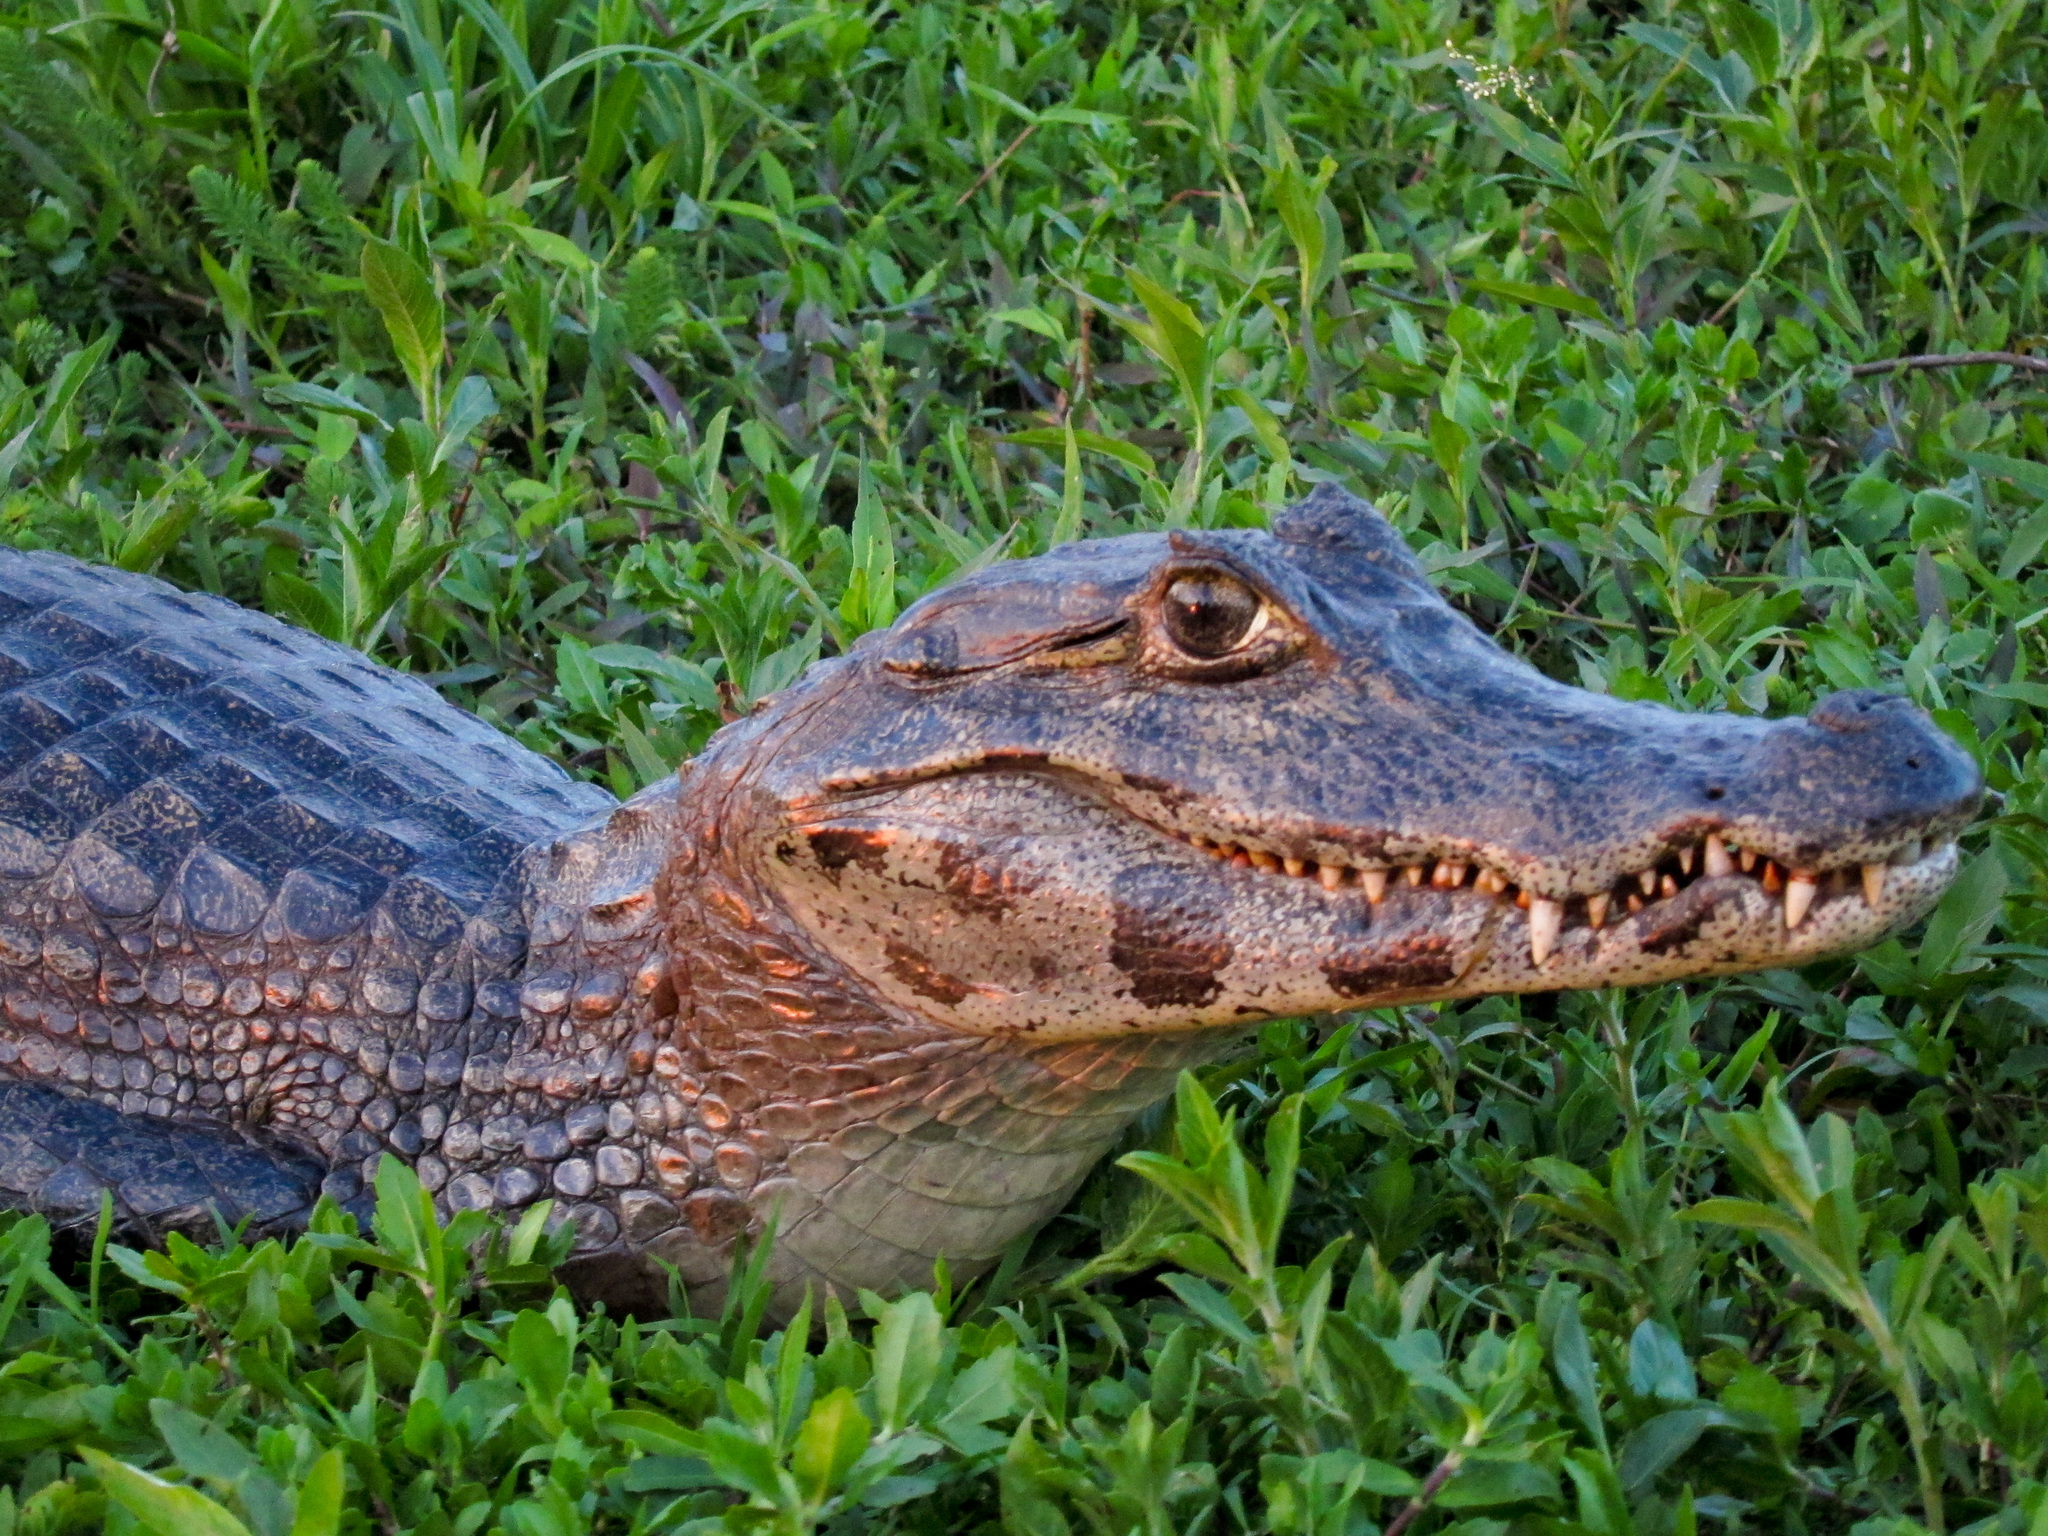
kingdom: Animalia
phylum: Chordata
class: Crocodylia
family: Alligatoridae
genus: Caiman
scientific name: Caiman yacare
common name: Yacare caiman
